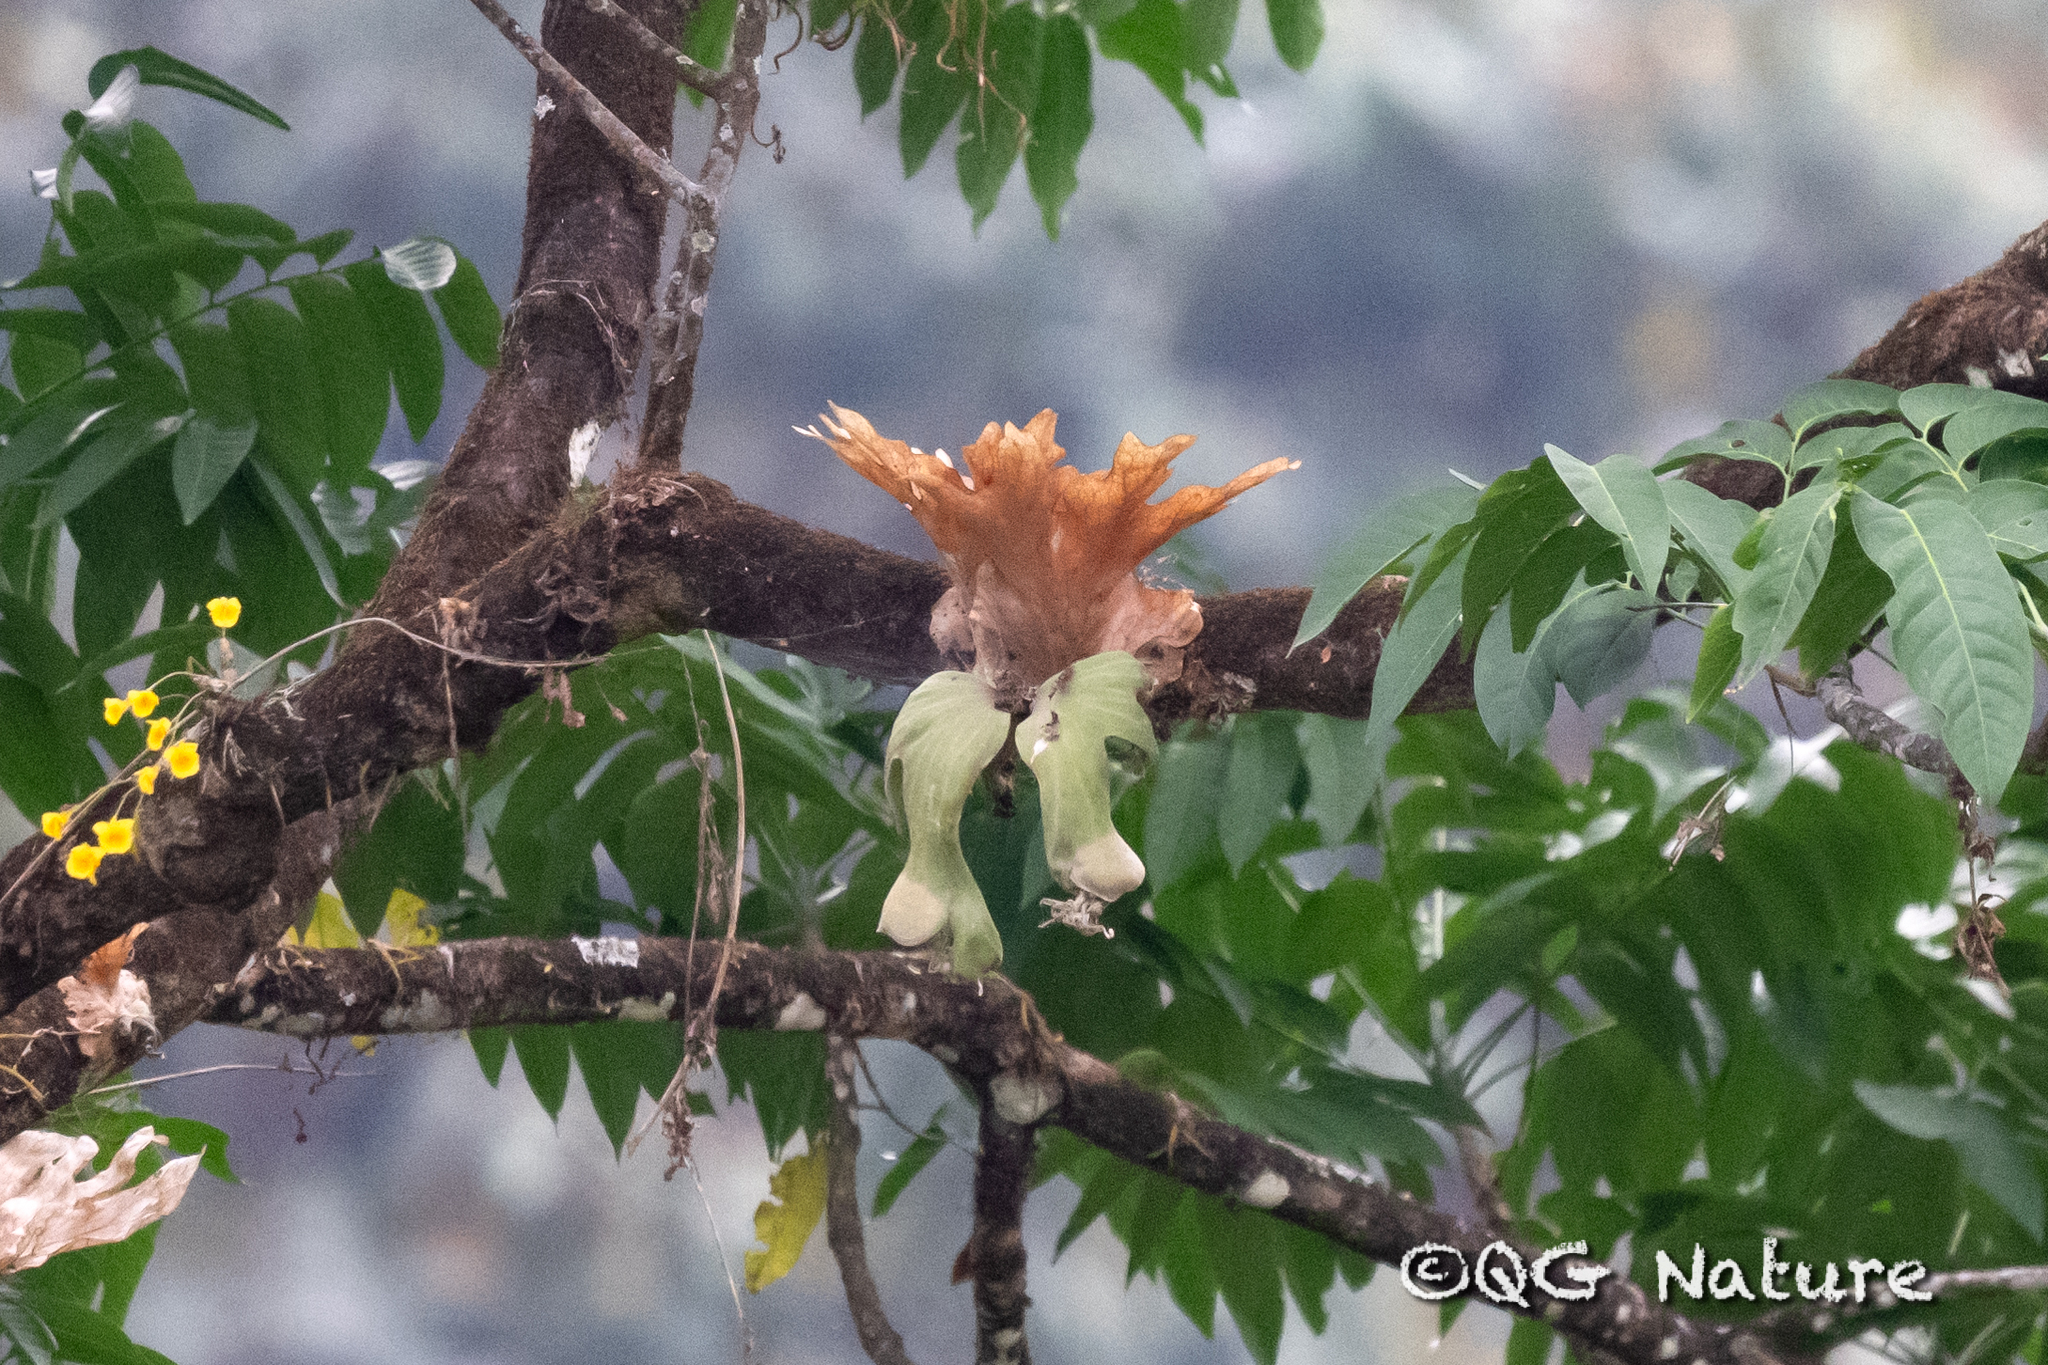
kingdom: Plantae
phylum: Tracheophyta
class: Polypodiopsida
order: Polypodiales
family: Polypodiaceae
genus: Platycerium
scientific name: Platycerium wallichii
